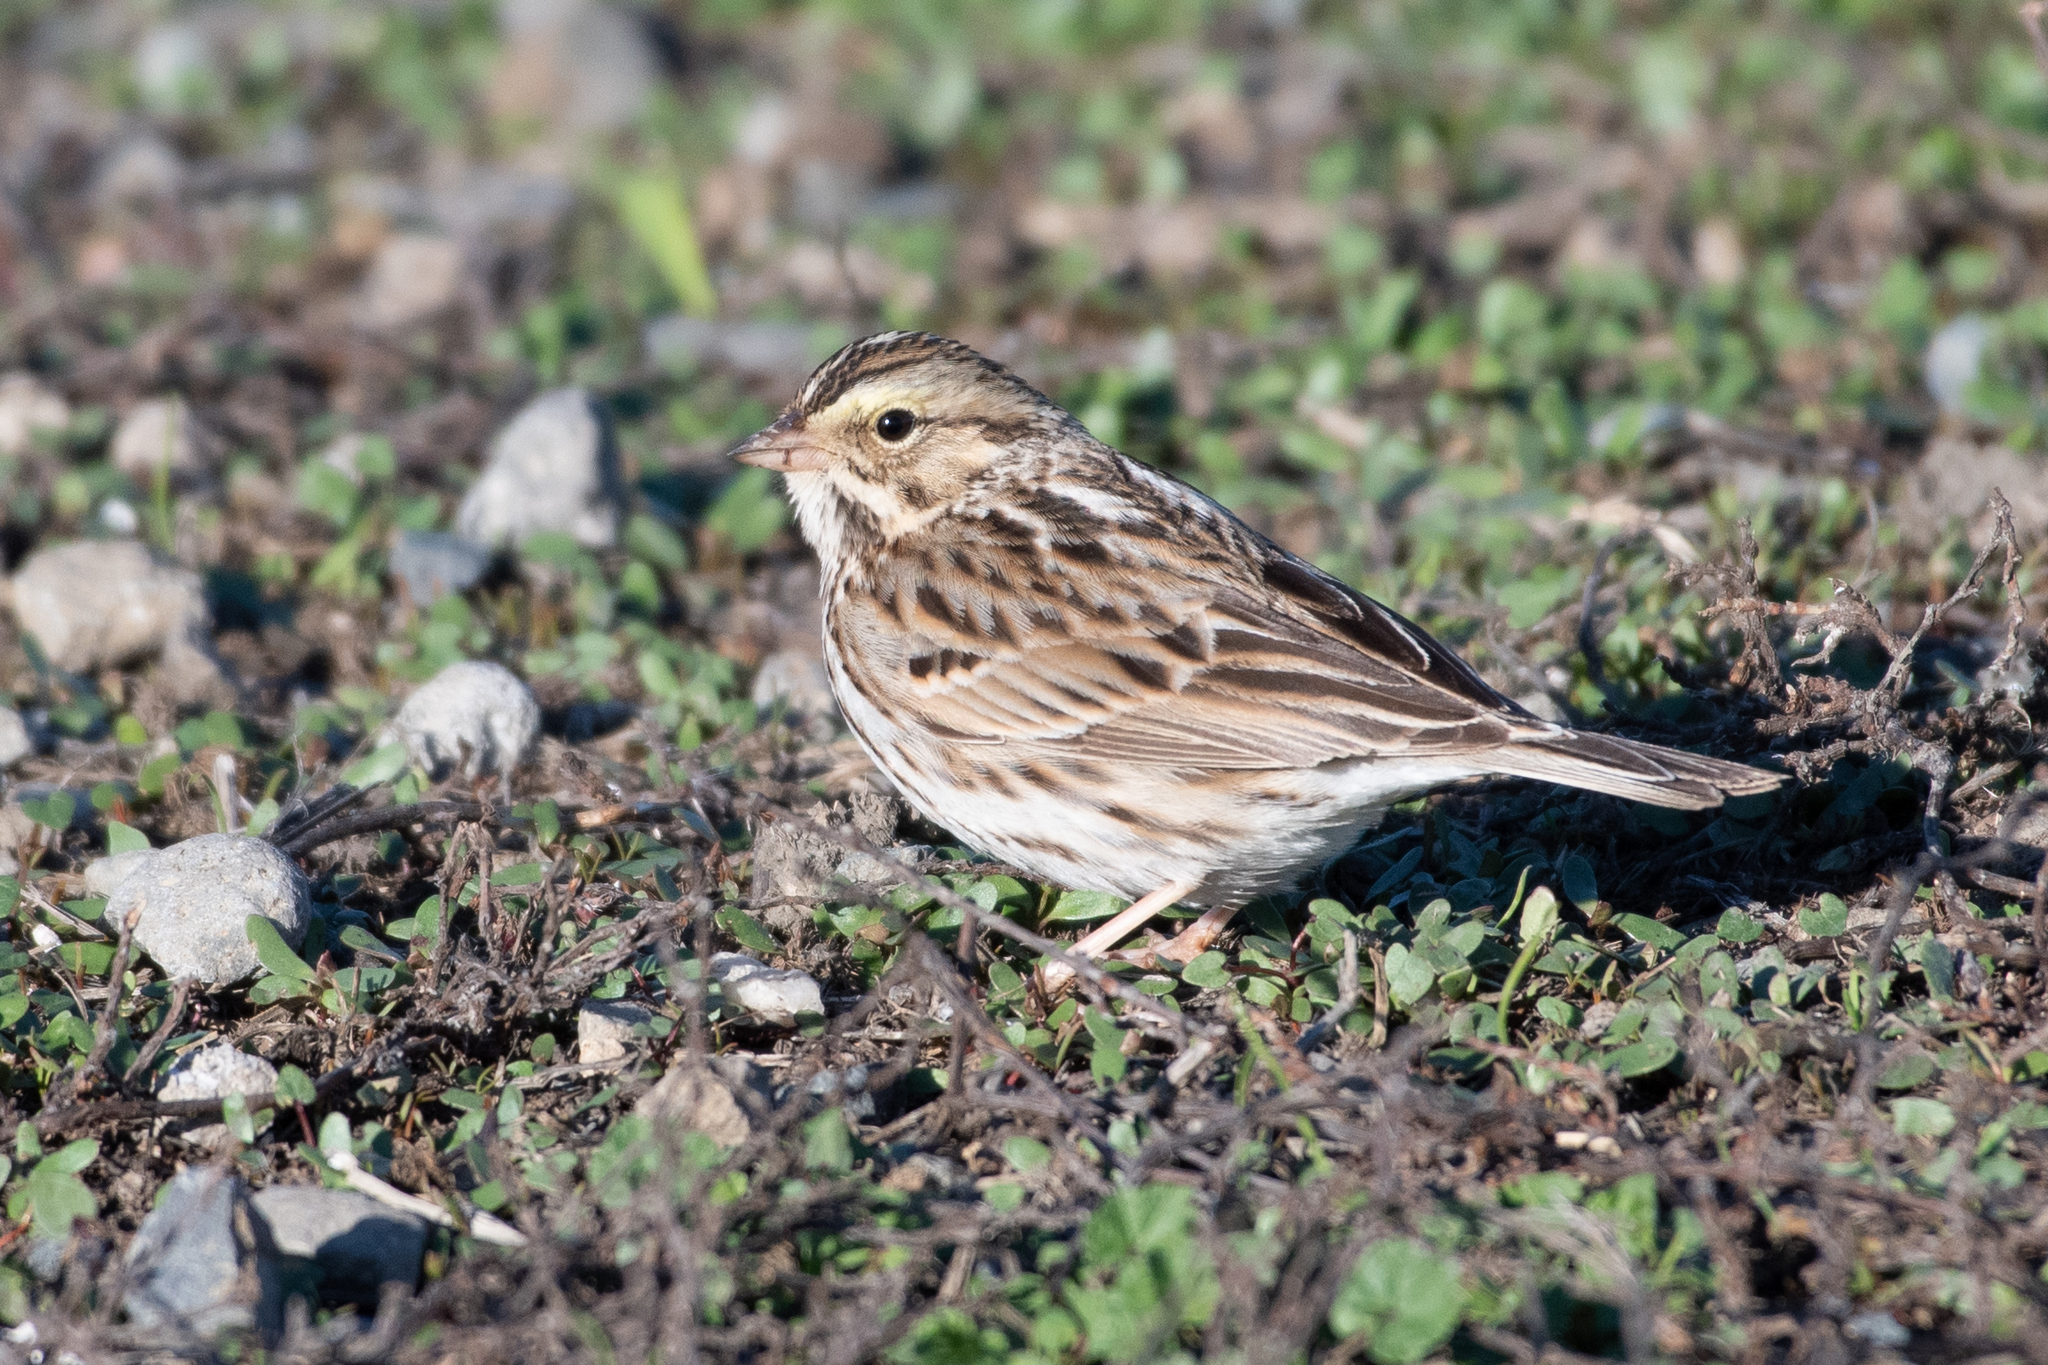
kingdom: Animalia
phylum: Chordata
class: Aves
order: Passeriformes
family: Passerellidae
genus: Passerculus
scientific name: Passerculus sandwichensis
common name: Savannah sparrow
